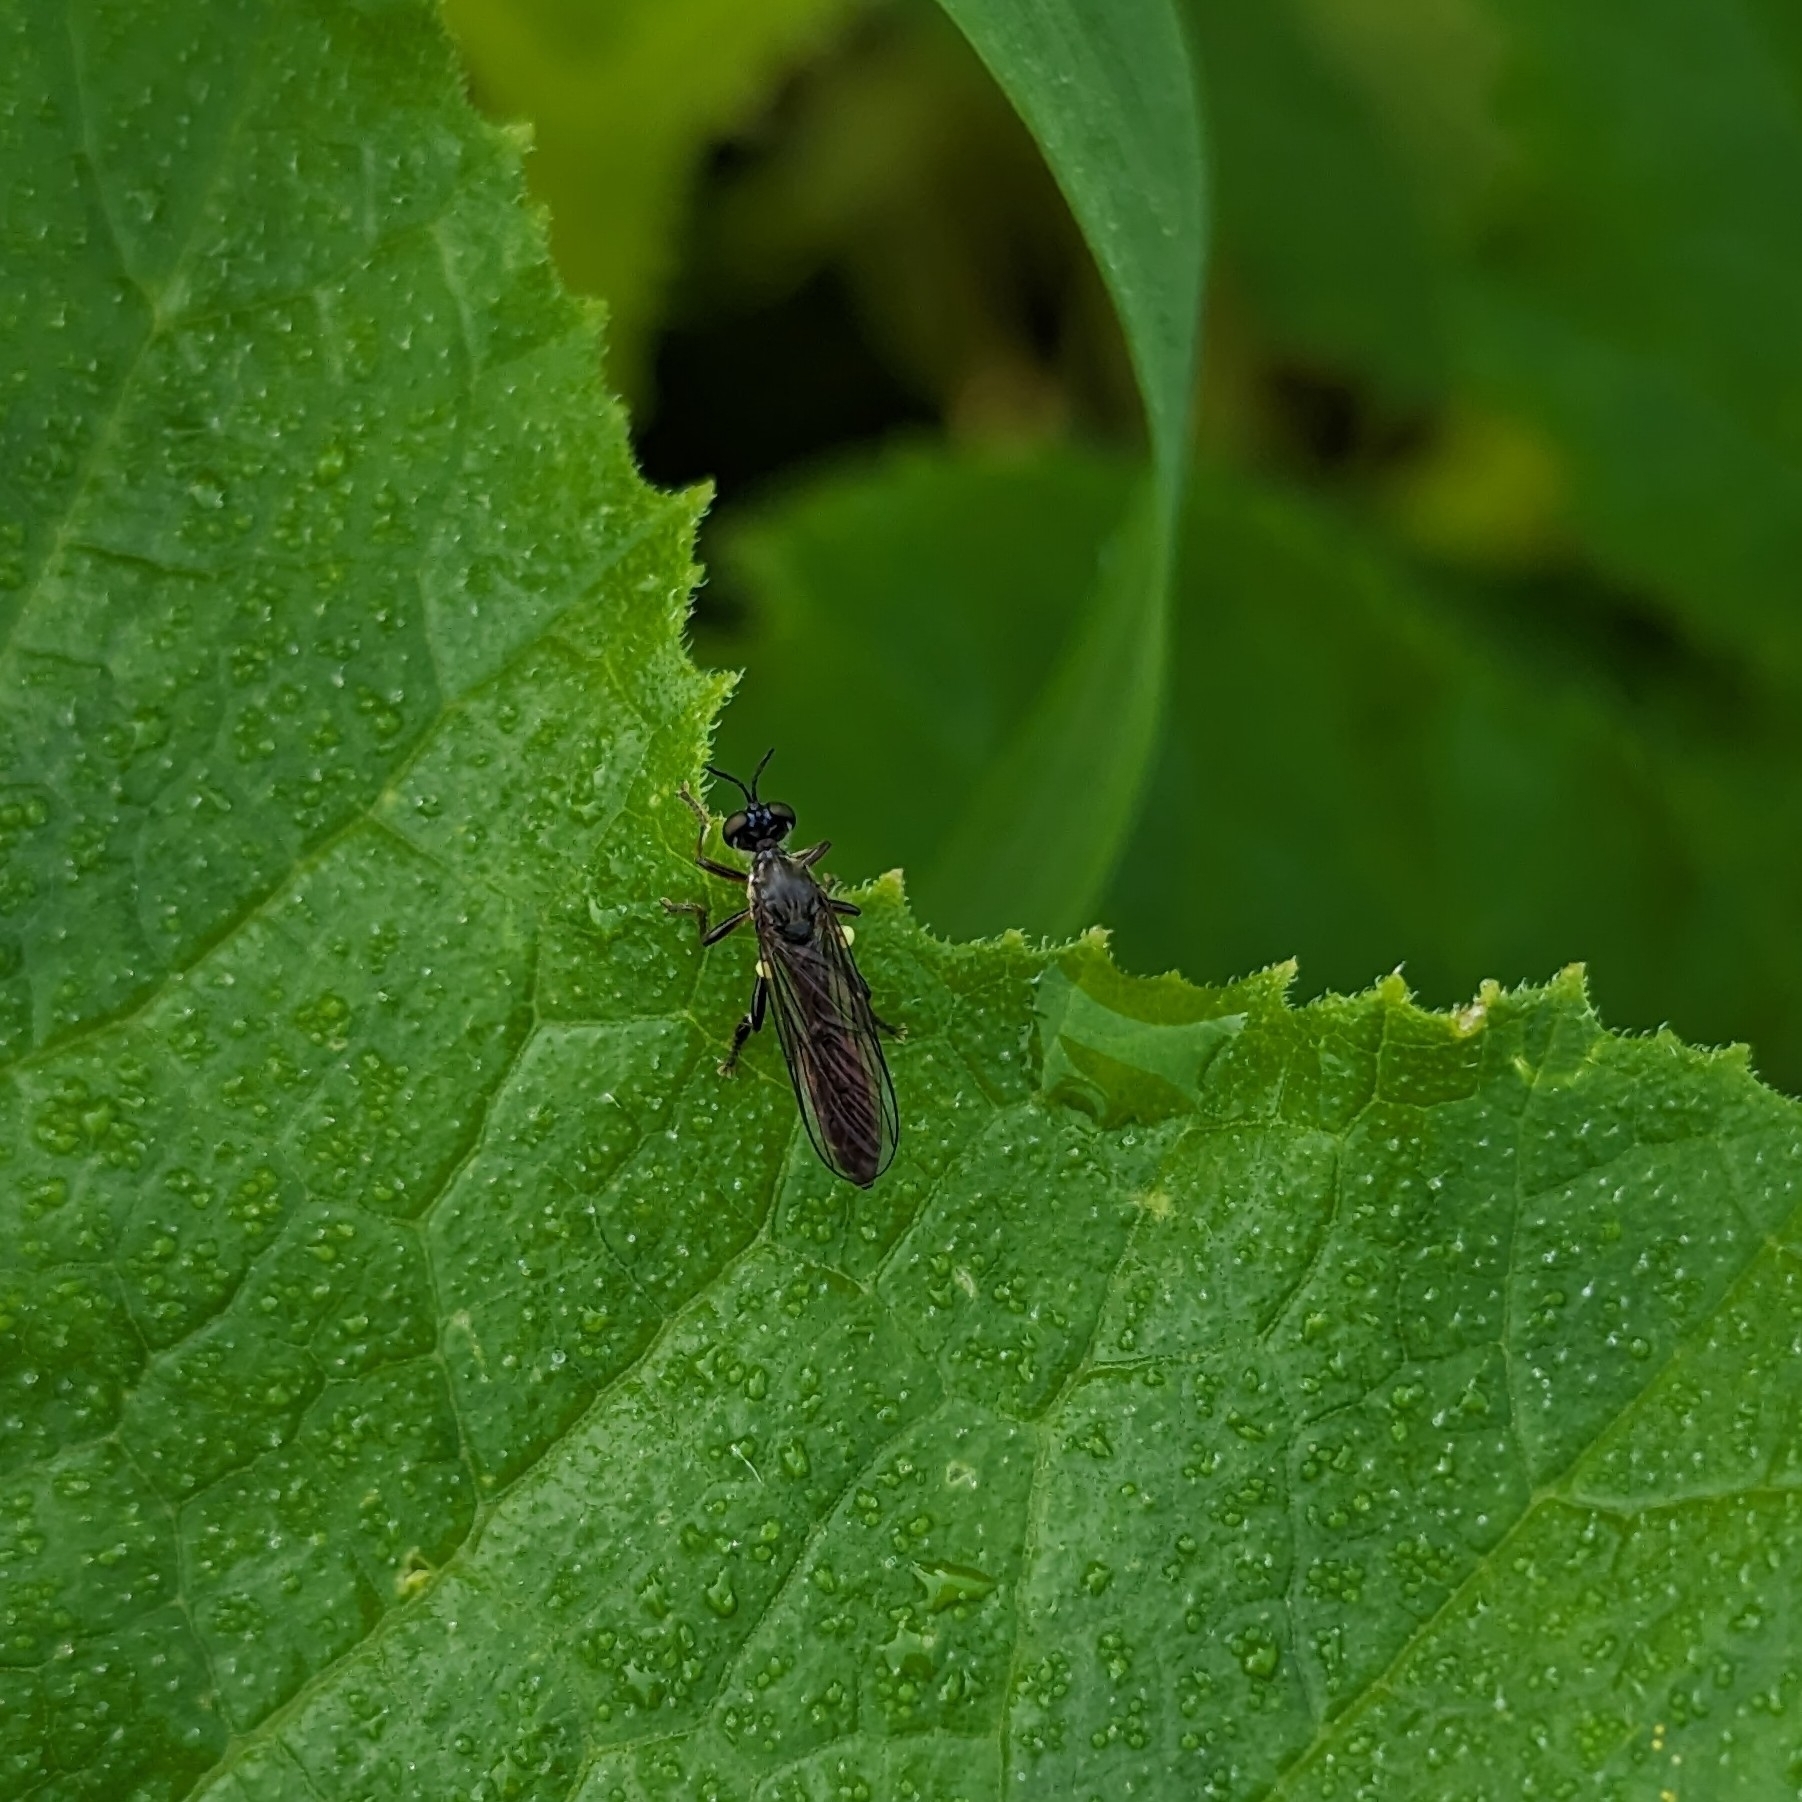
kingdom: Animalia
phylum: Arthropoda
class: Insecta
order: Diptera
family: Asilidae
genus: Dioctria
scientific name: Dioctria hyalipennis
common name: Stripe-legged robberfly
